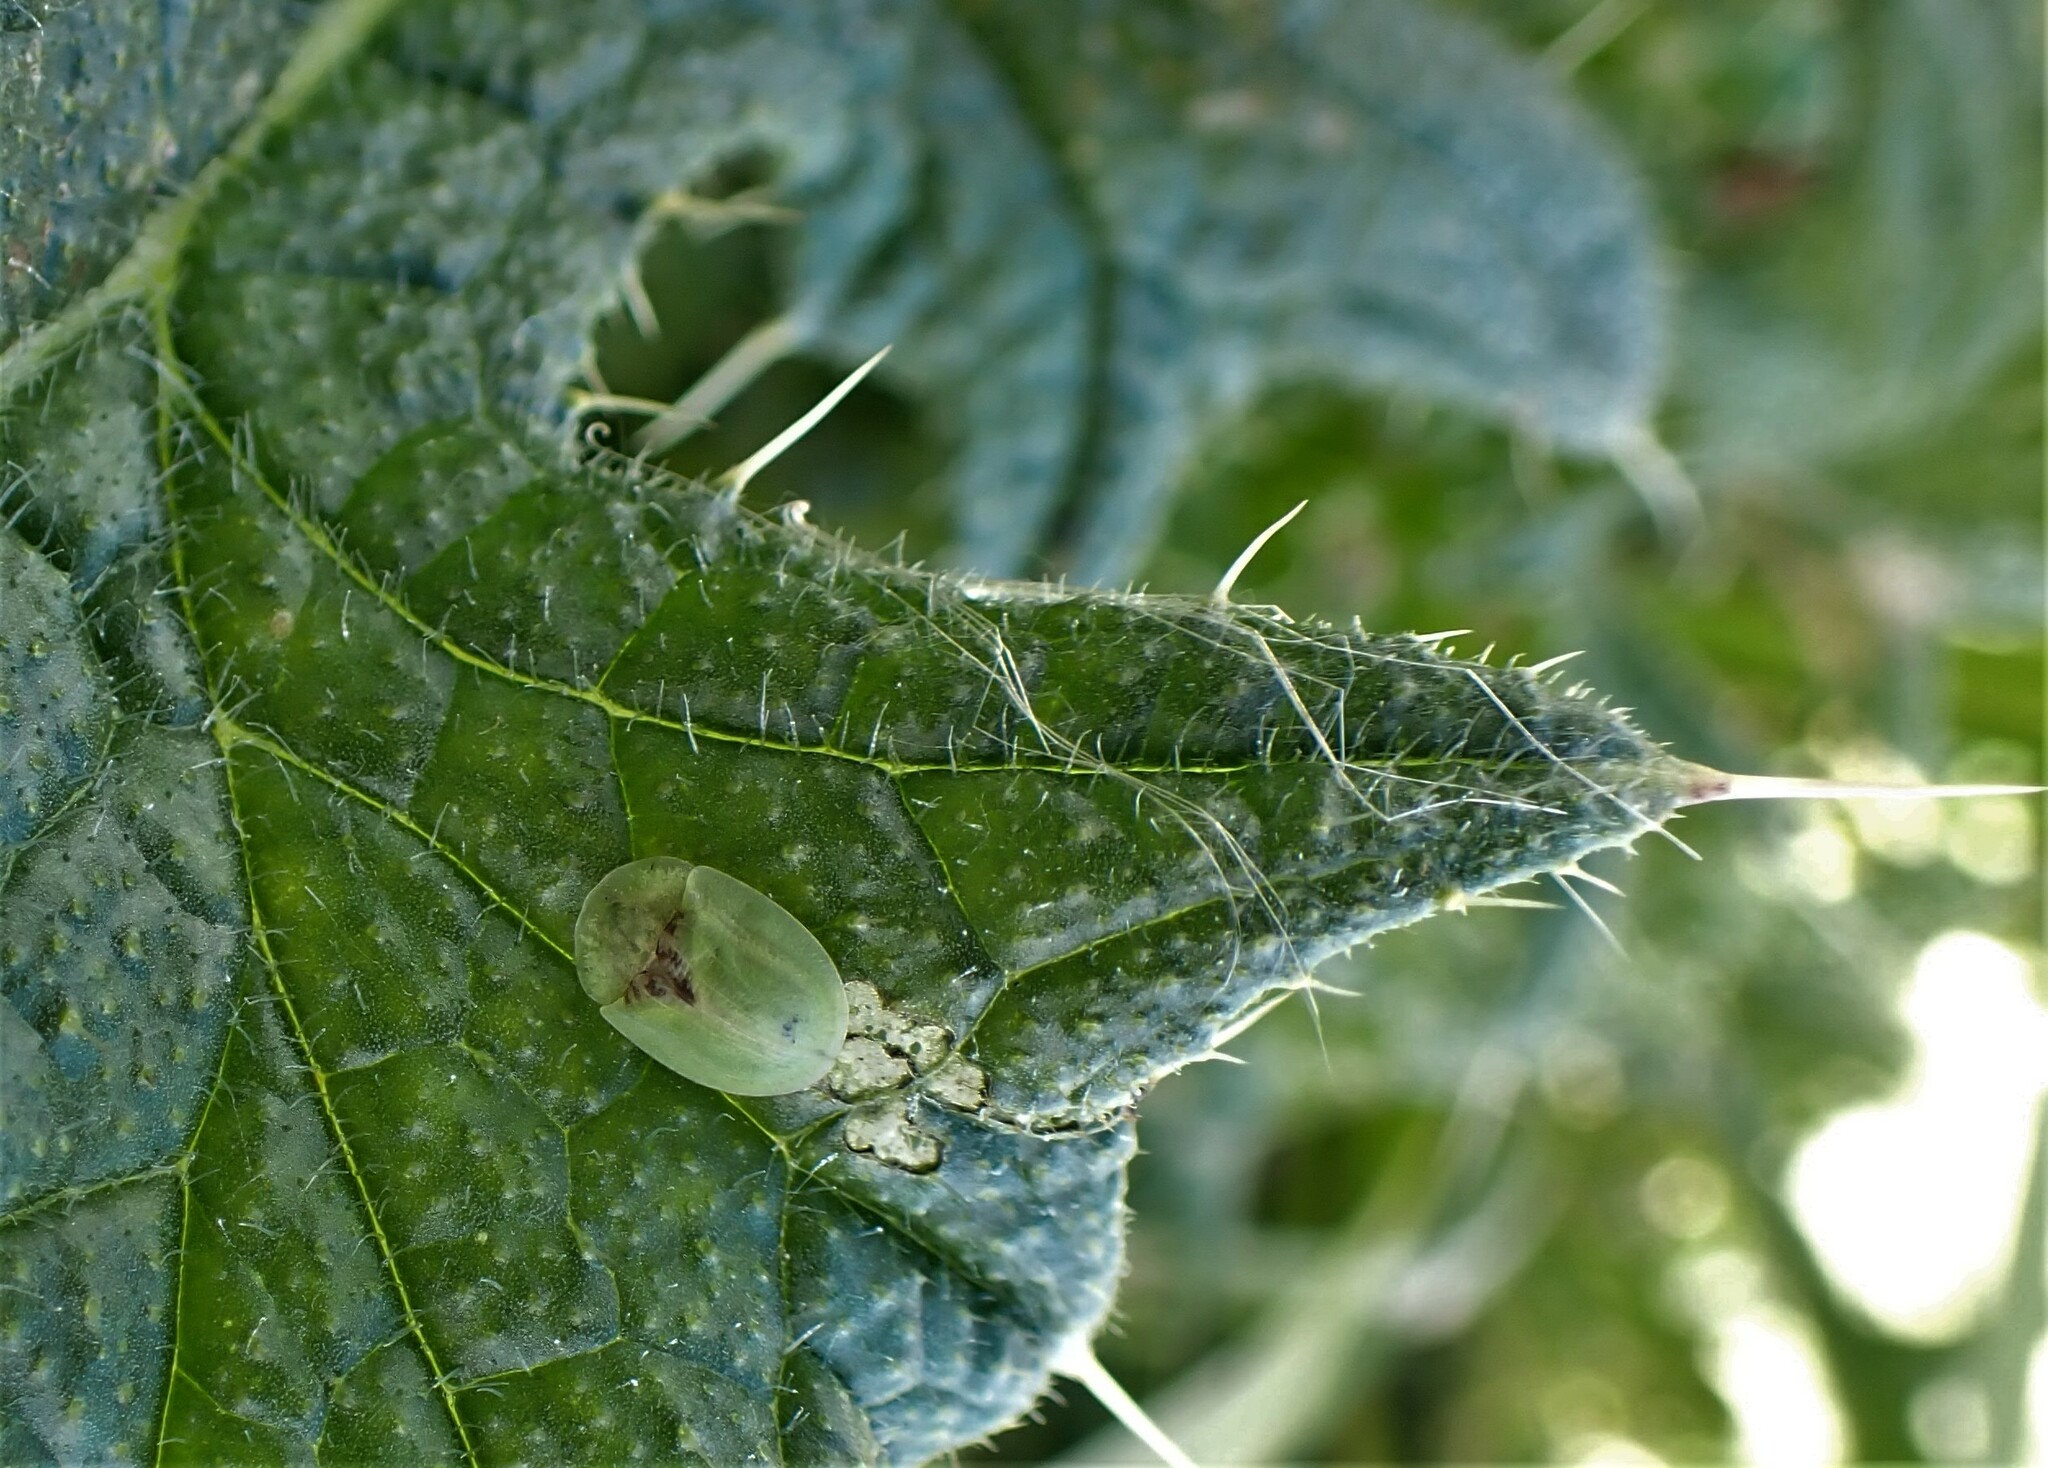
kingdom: Animalia
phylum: Arthropoda
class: Insecta
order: Coleoptera
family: Chrysomelidae
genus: Cassida
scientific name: Cassida rubiginosa
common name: Thistle tortoise beetle
